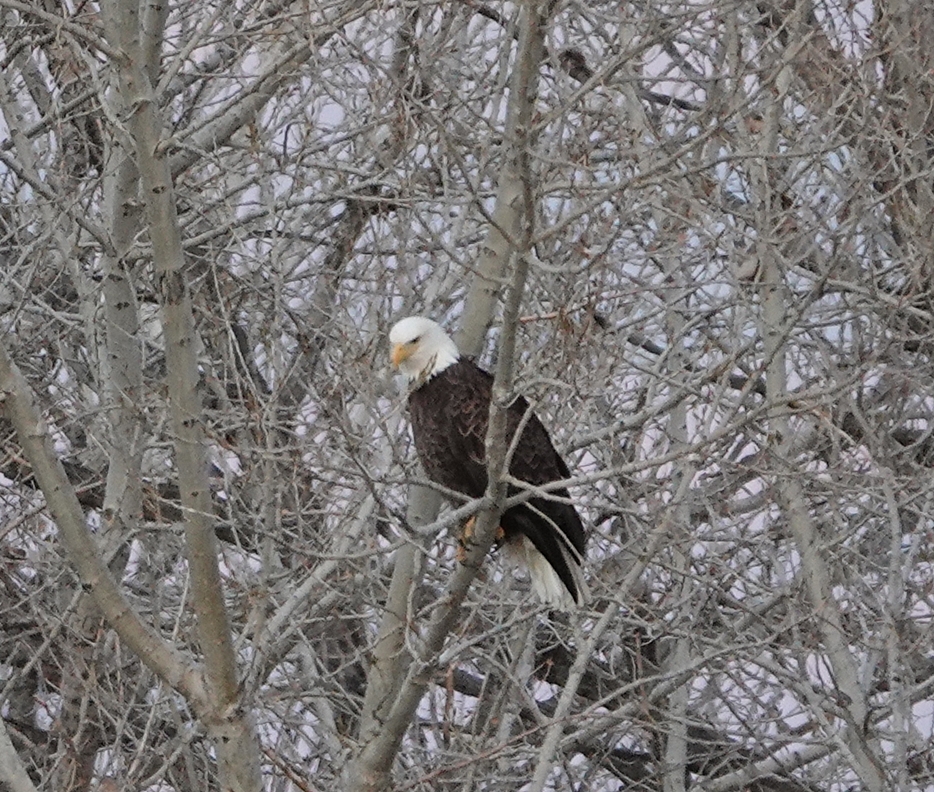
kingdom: Animalia
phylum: Chordata
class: Aves
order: Accipitriformes
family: Accipitridae
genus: Haliaeetus
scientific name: Haliaeetus leucocephalus
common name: Bald eagle
